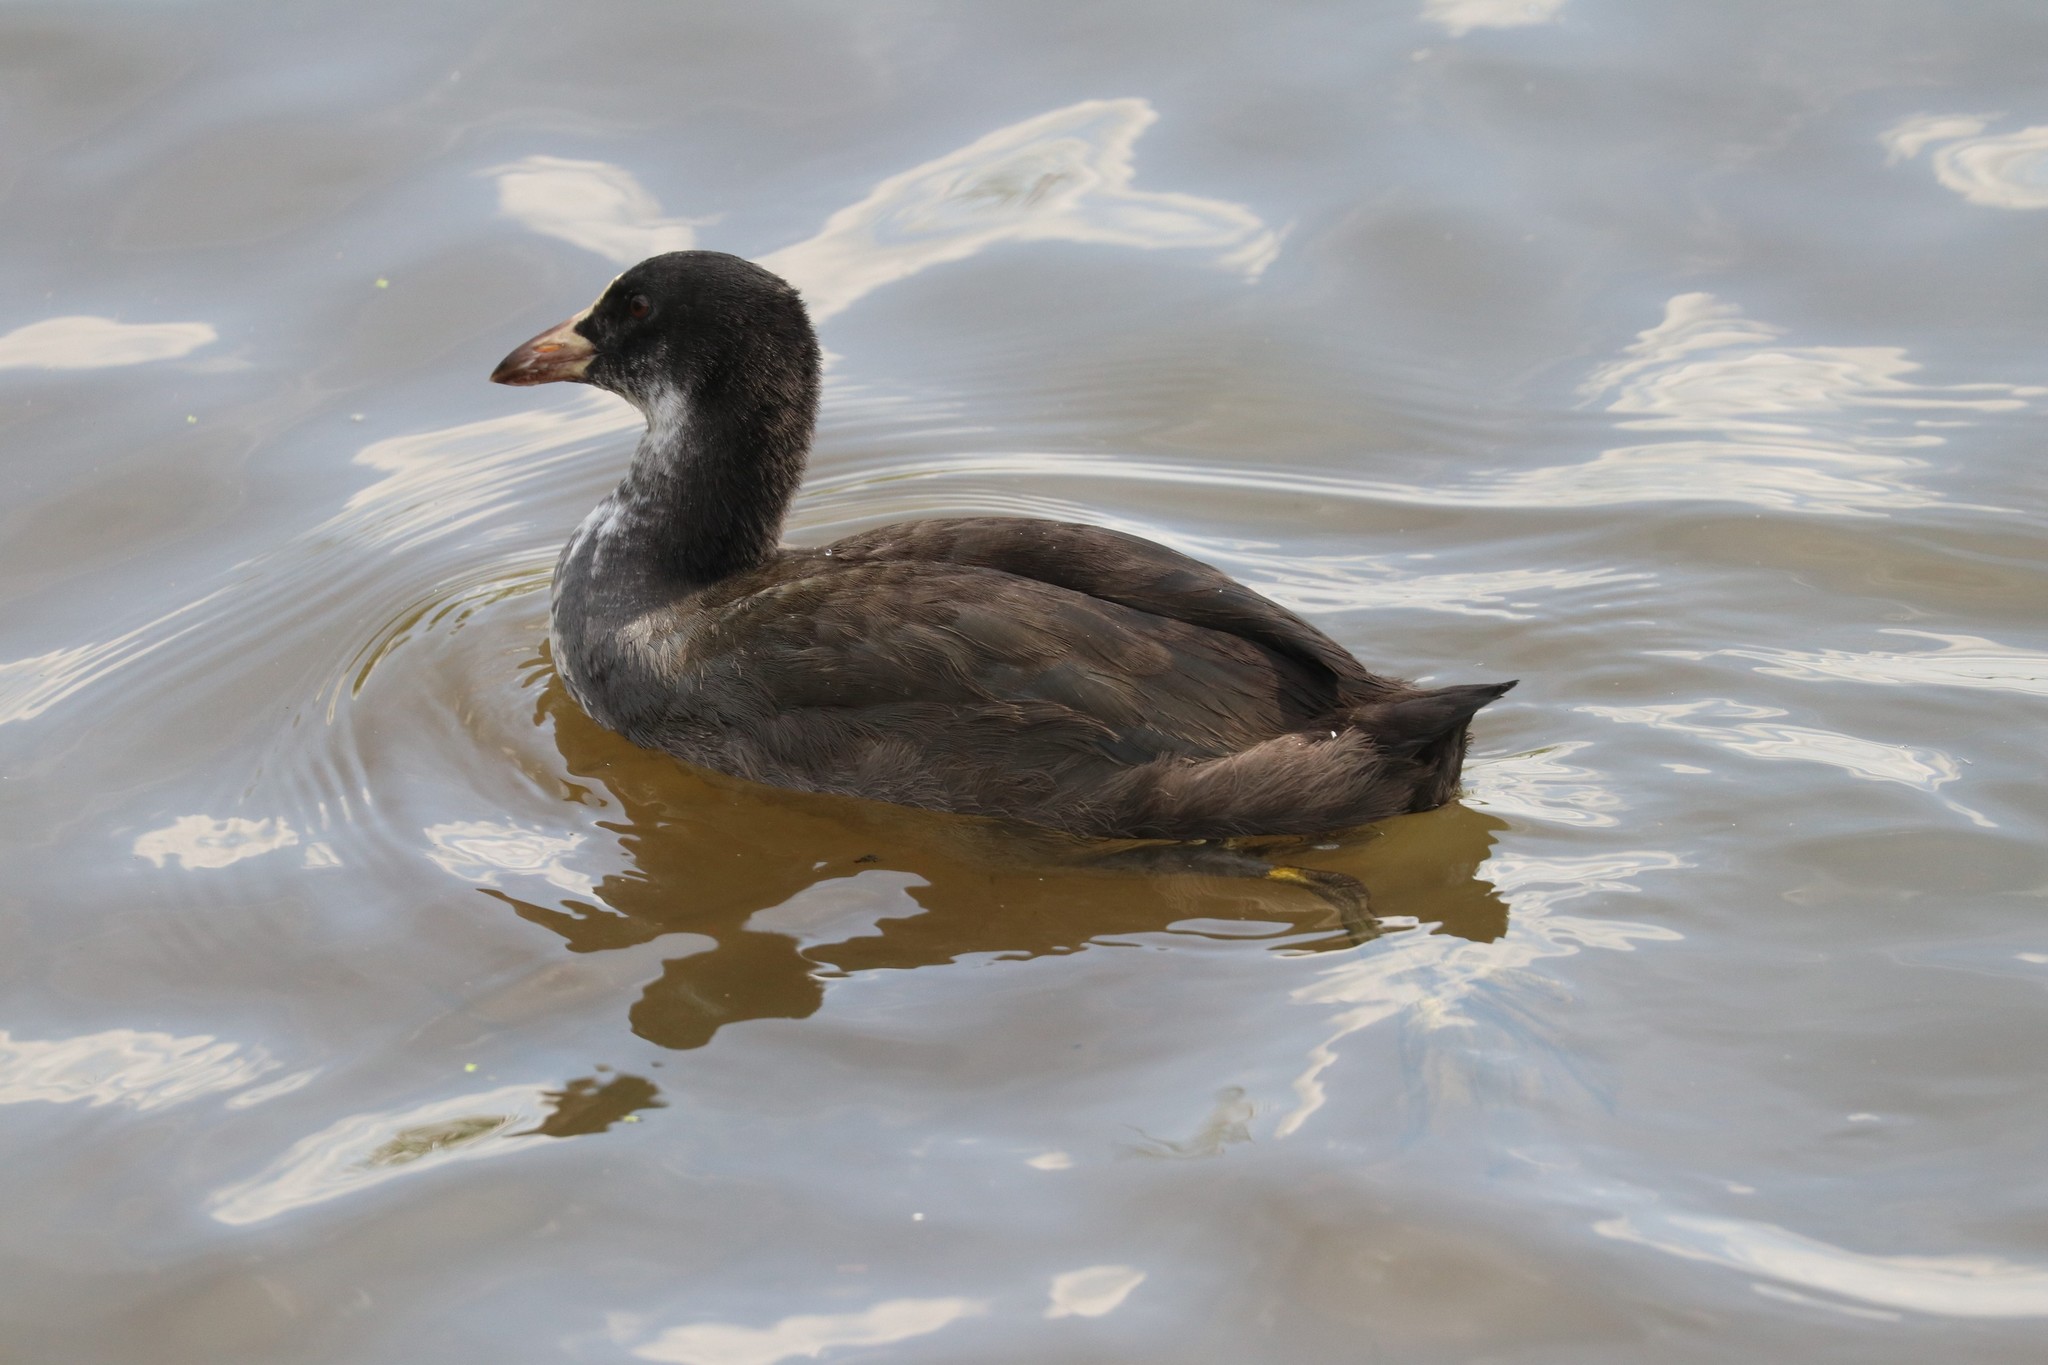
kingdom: Animalia
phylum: Chordata
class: Aves
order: Gruiformes
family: Rallidae
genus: Fulica
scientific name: Fulica atra
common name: Eurasian coot
